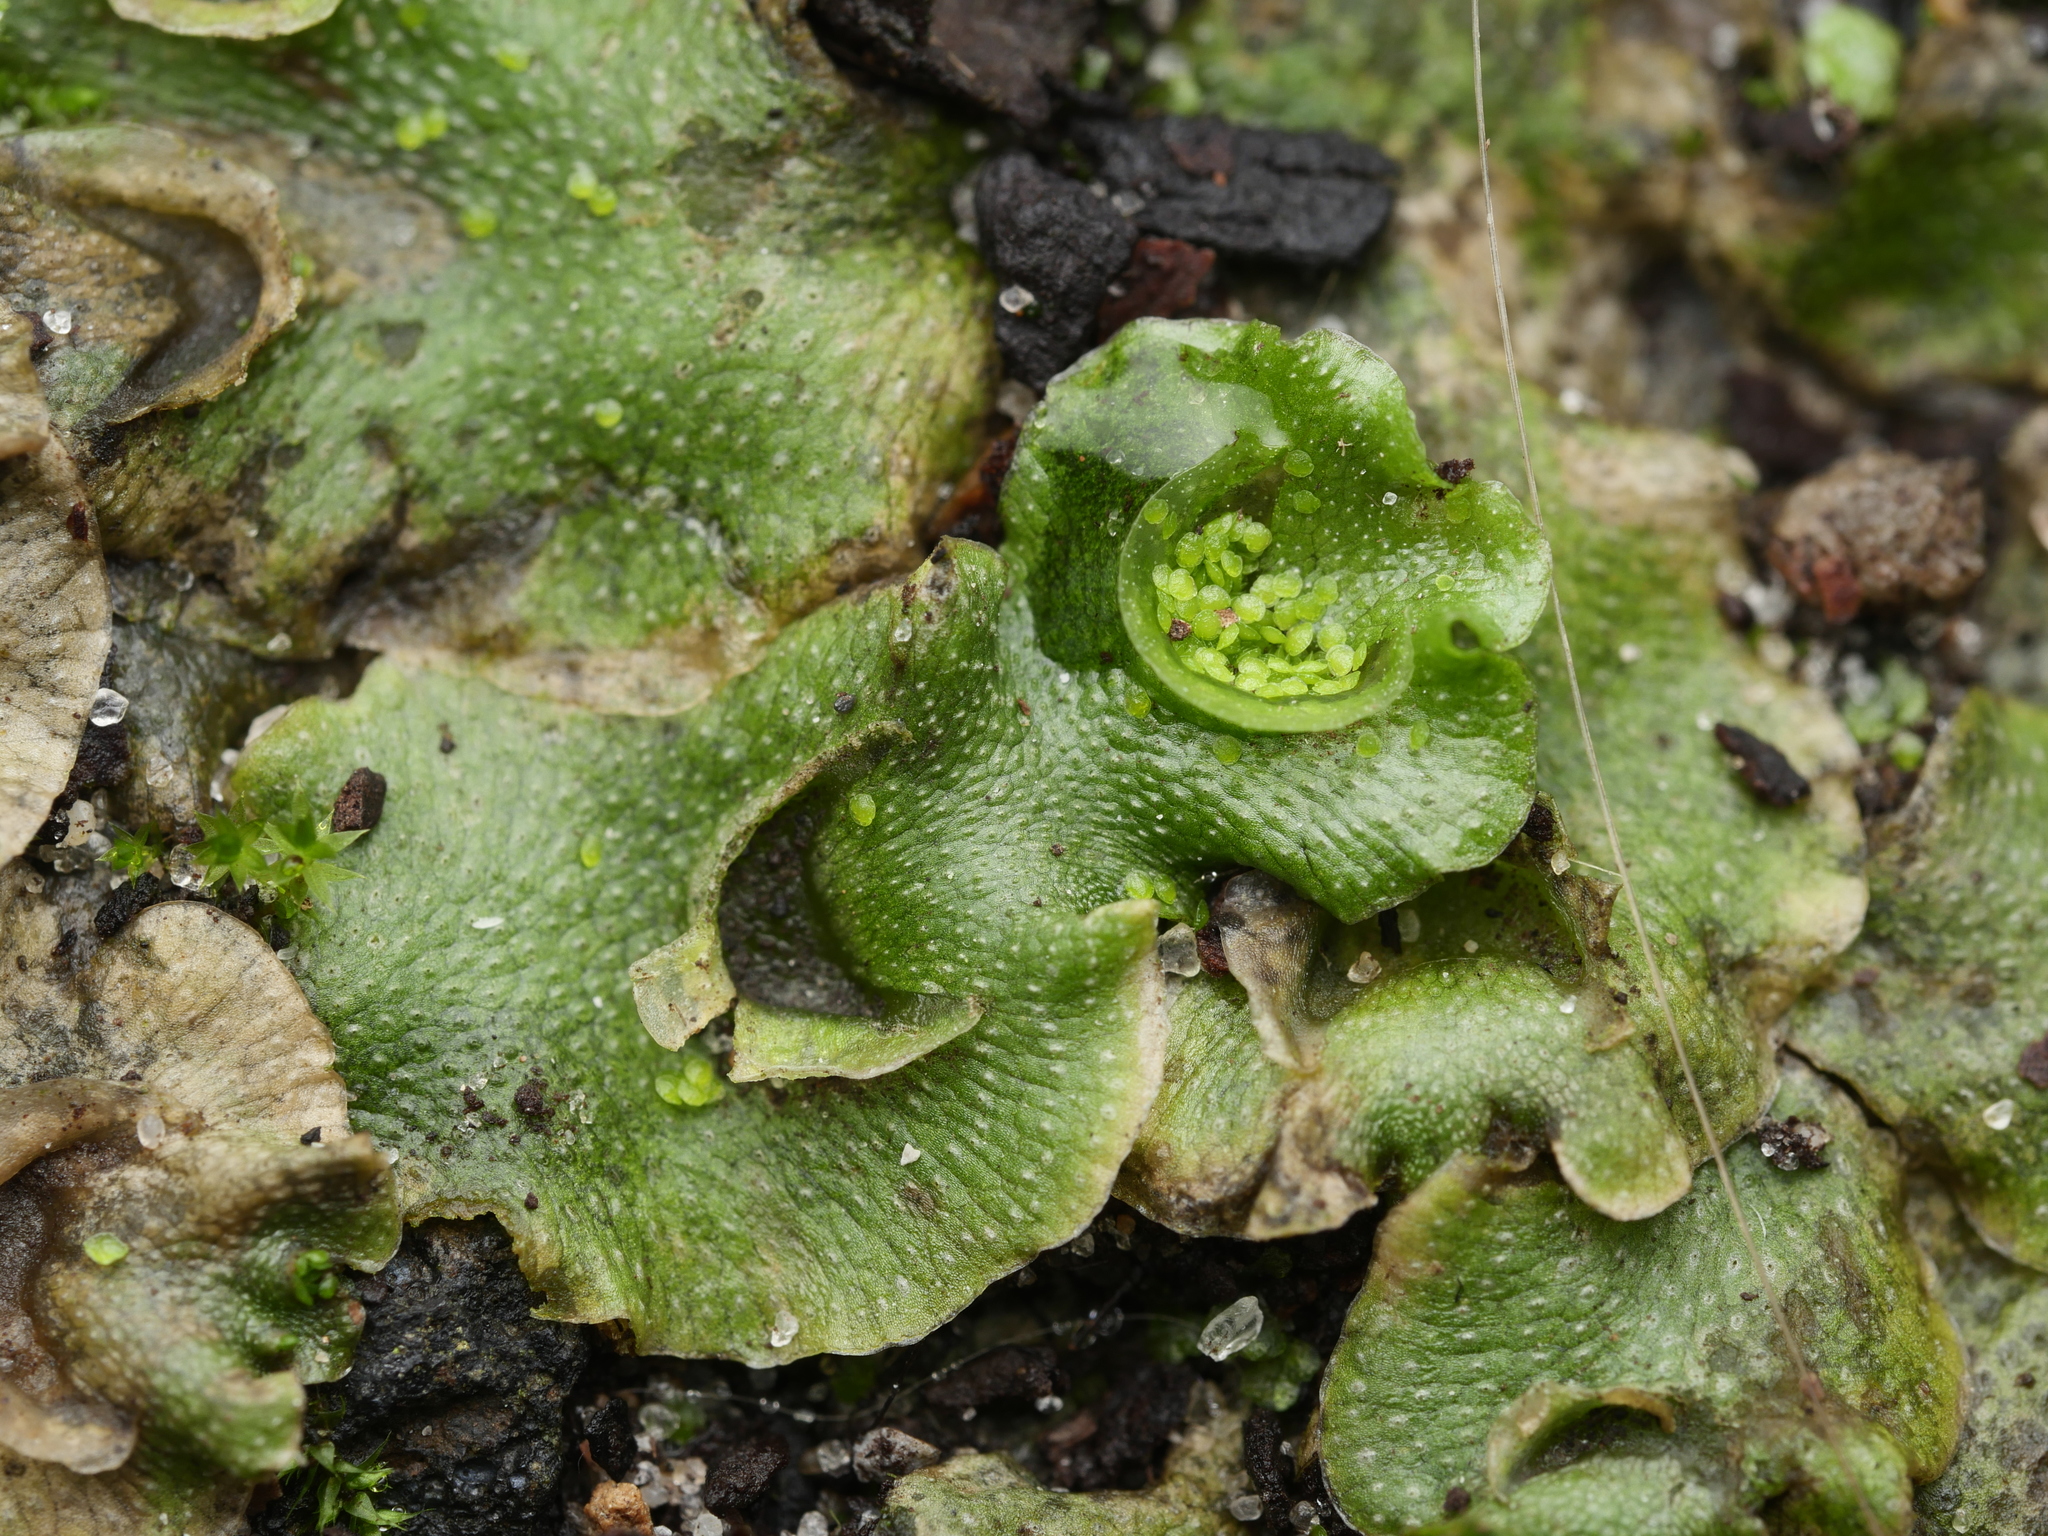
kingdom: Plantae
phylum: Marchantiophyta
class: Marchantiopsida
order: Lunulariales
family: Lunulariaceae
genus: Lunularia
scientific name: Lunularia cruciata
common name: Crescent-cup liverwort
